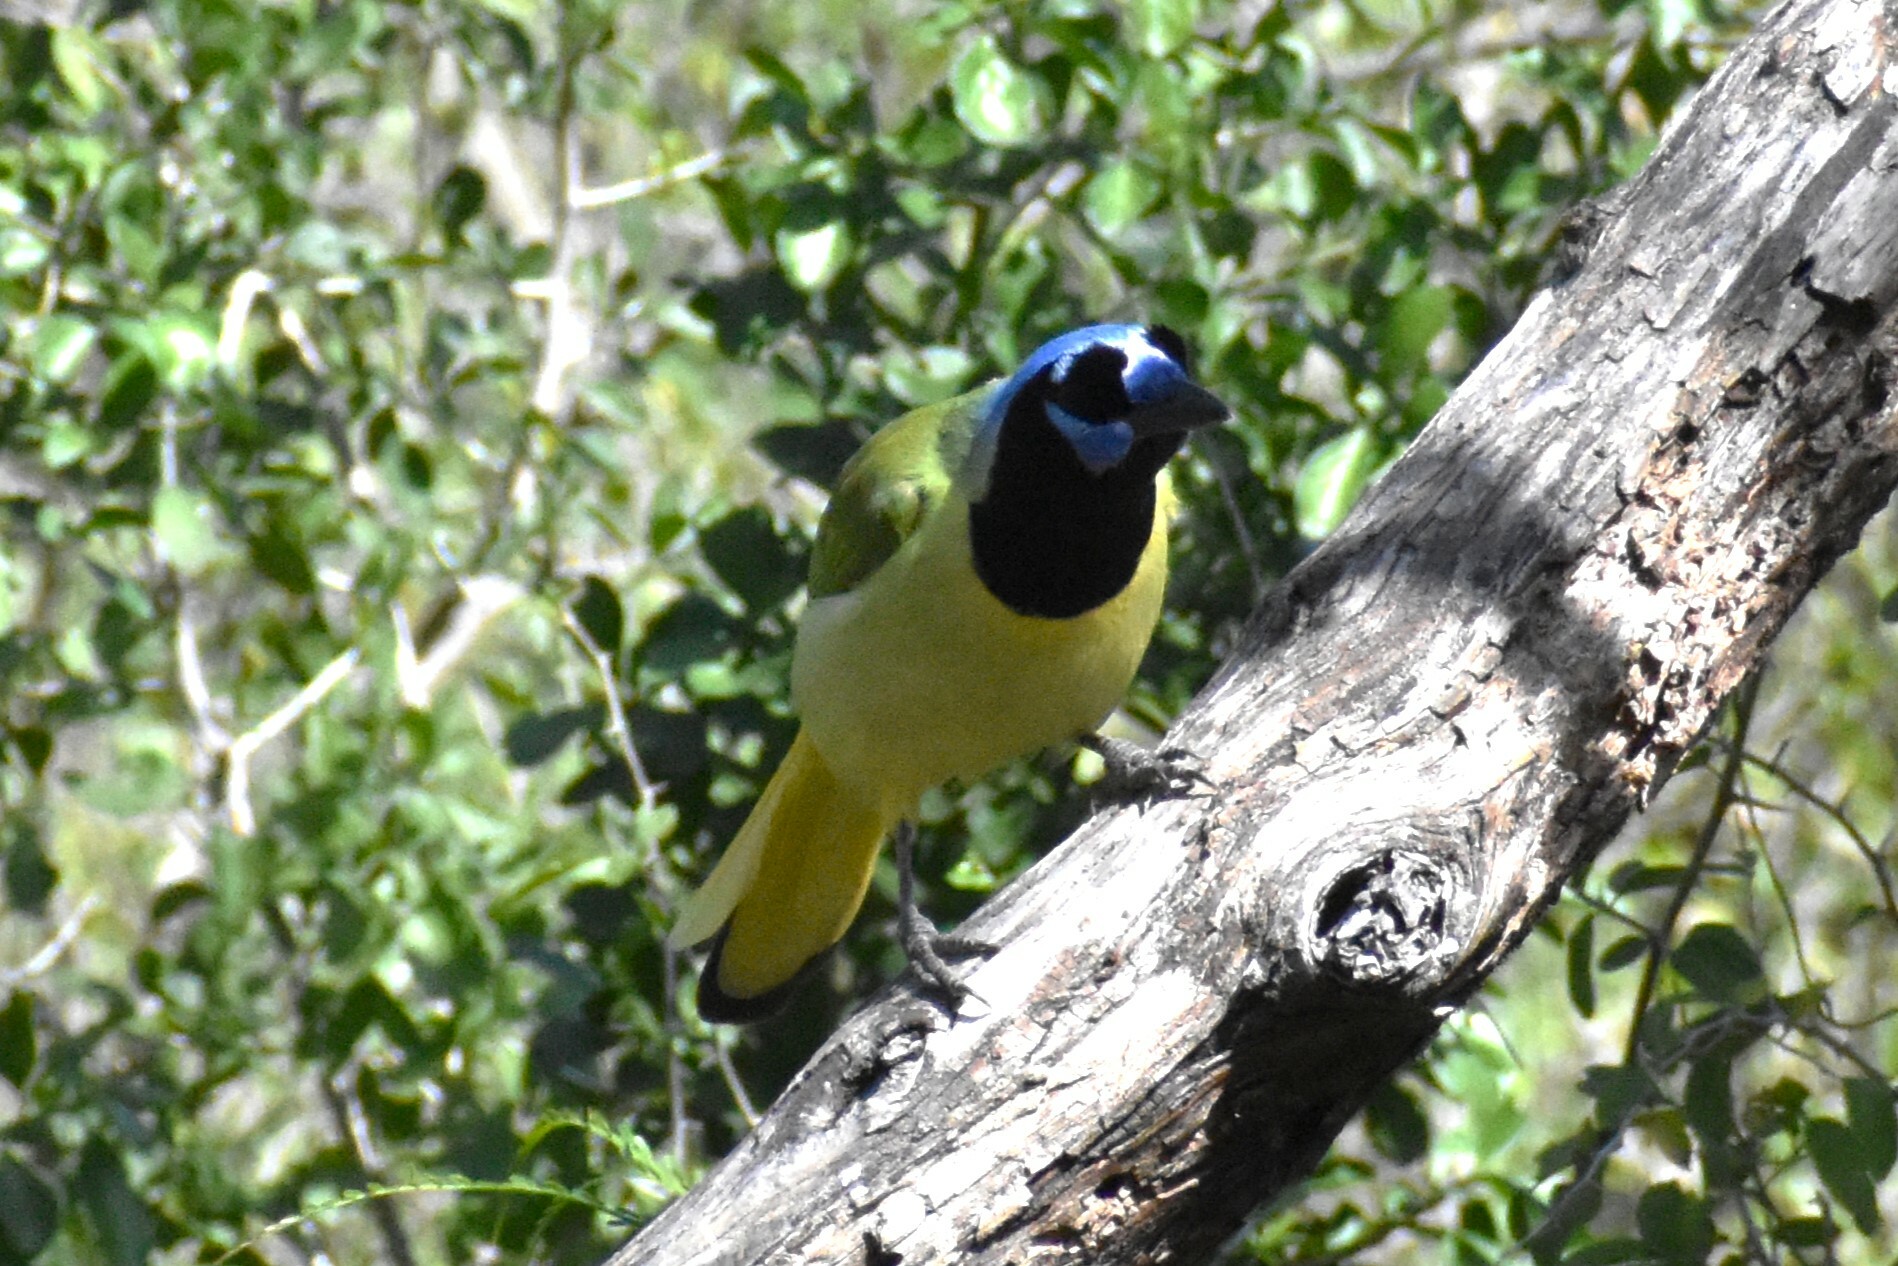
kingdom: Animalia
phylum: Chordata
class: Aves
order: Passeriformes
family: Corvidae
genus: Cyanocorax
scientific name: Cyanocorax yncas
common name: Green jay
